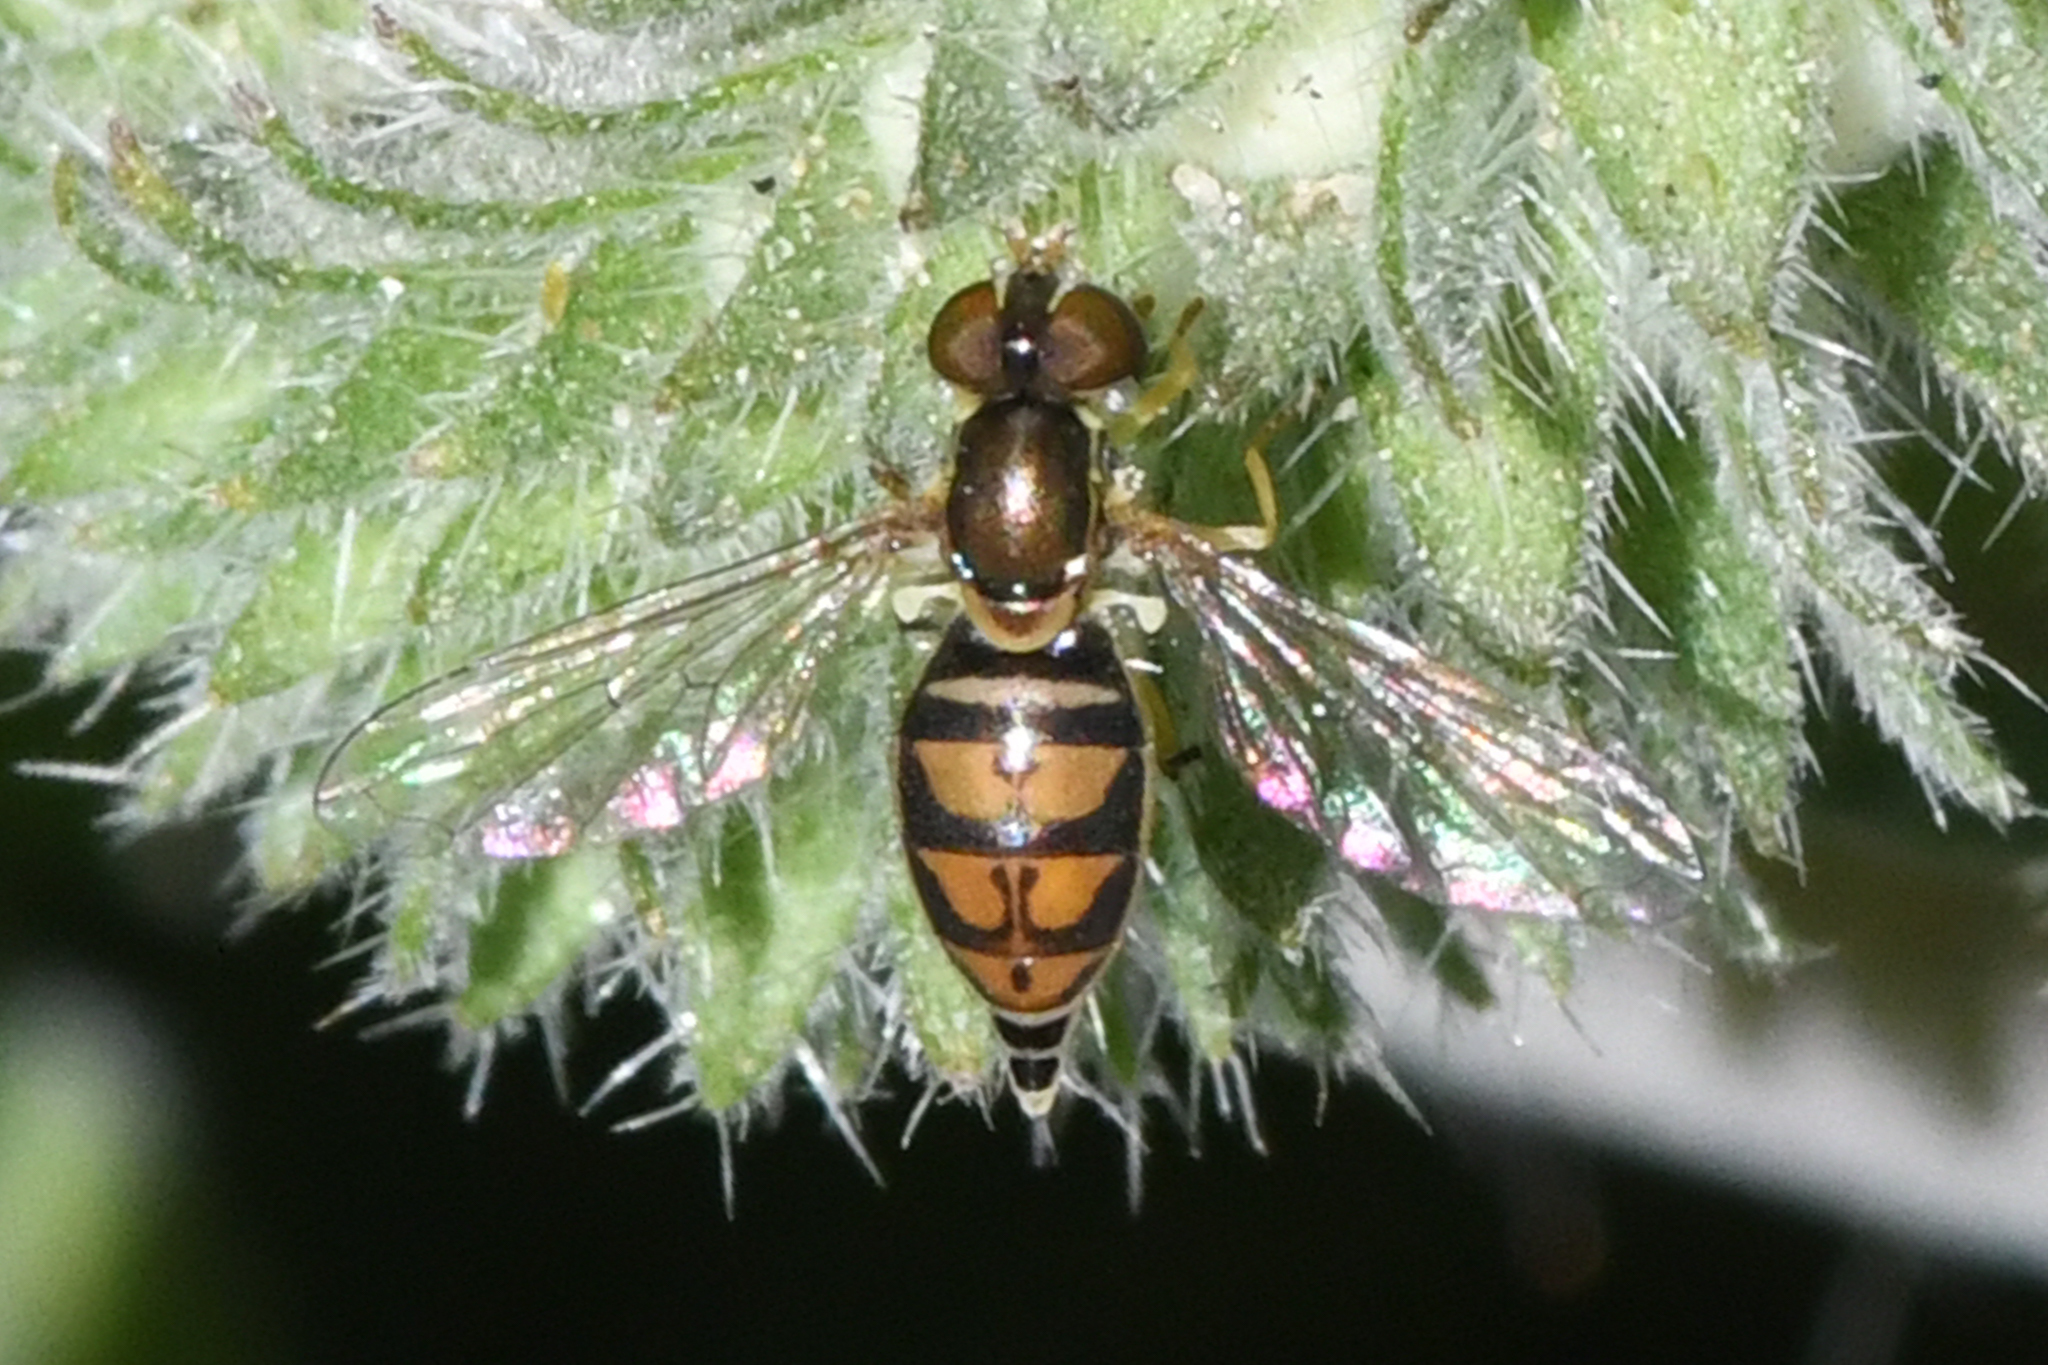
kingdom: Animalia
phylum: Arthropoda
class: Insecta
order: Diptera
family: Syrphidae
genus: Toxomerus
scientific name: Toxomerus marginatus
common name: Syrphid fly
